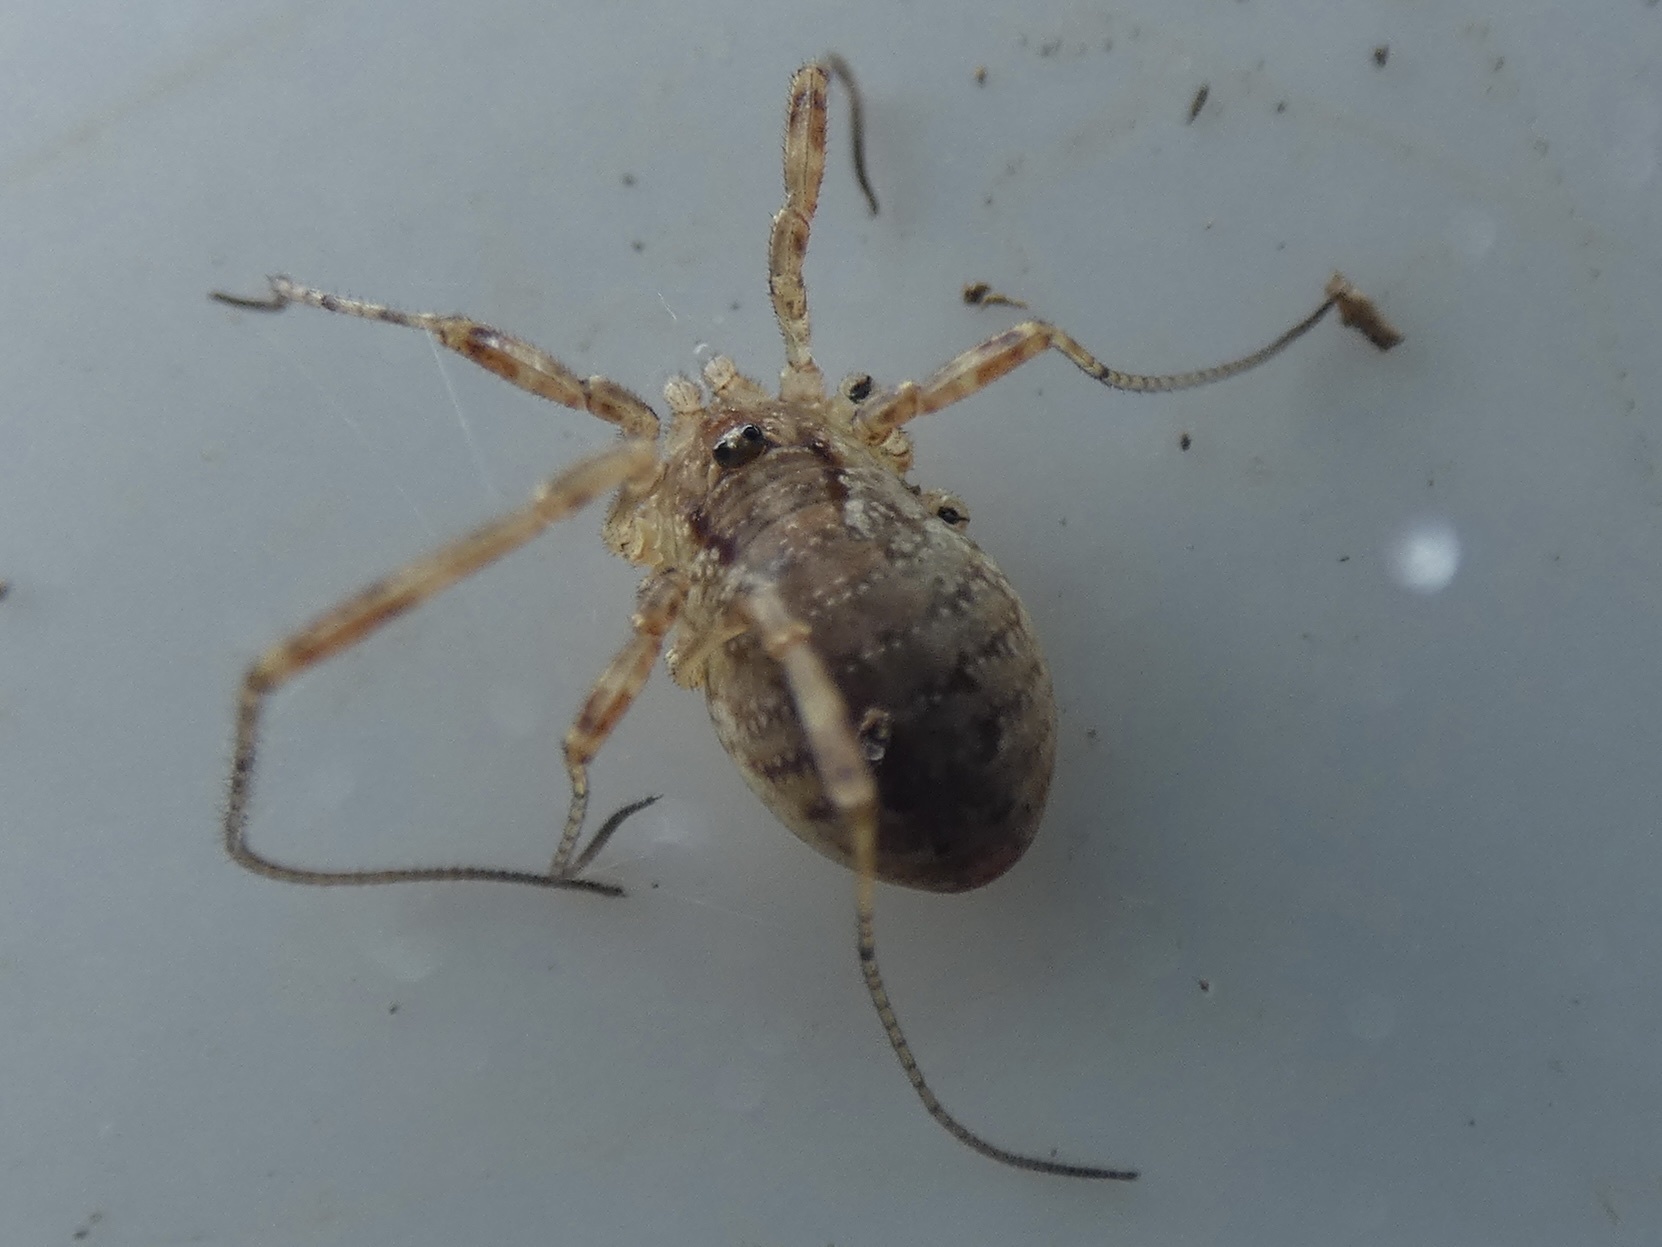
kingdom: Animalia
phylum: Arthropoda
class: Arachnida
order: Opiliones
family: Phalangiidae
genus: Paroligolophus
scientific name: Paroligolophus agrestis
